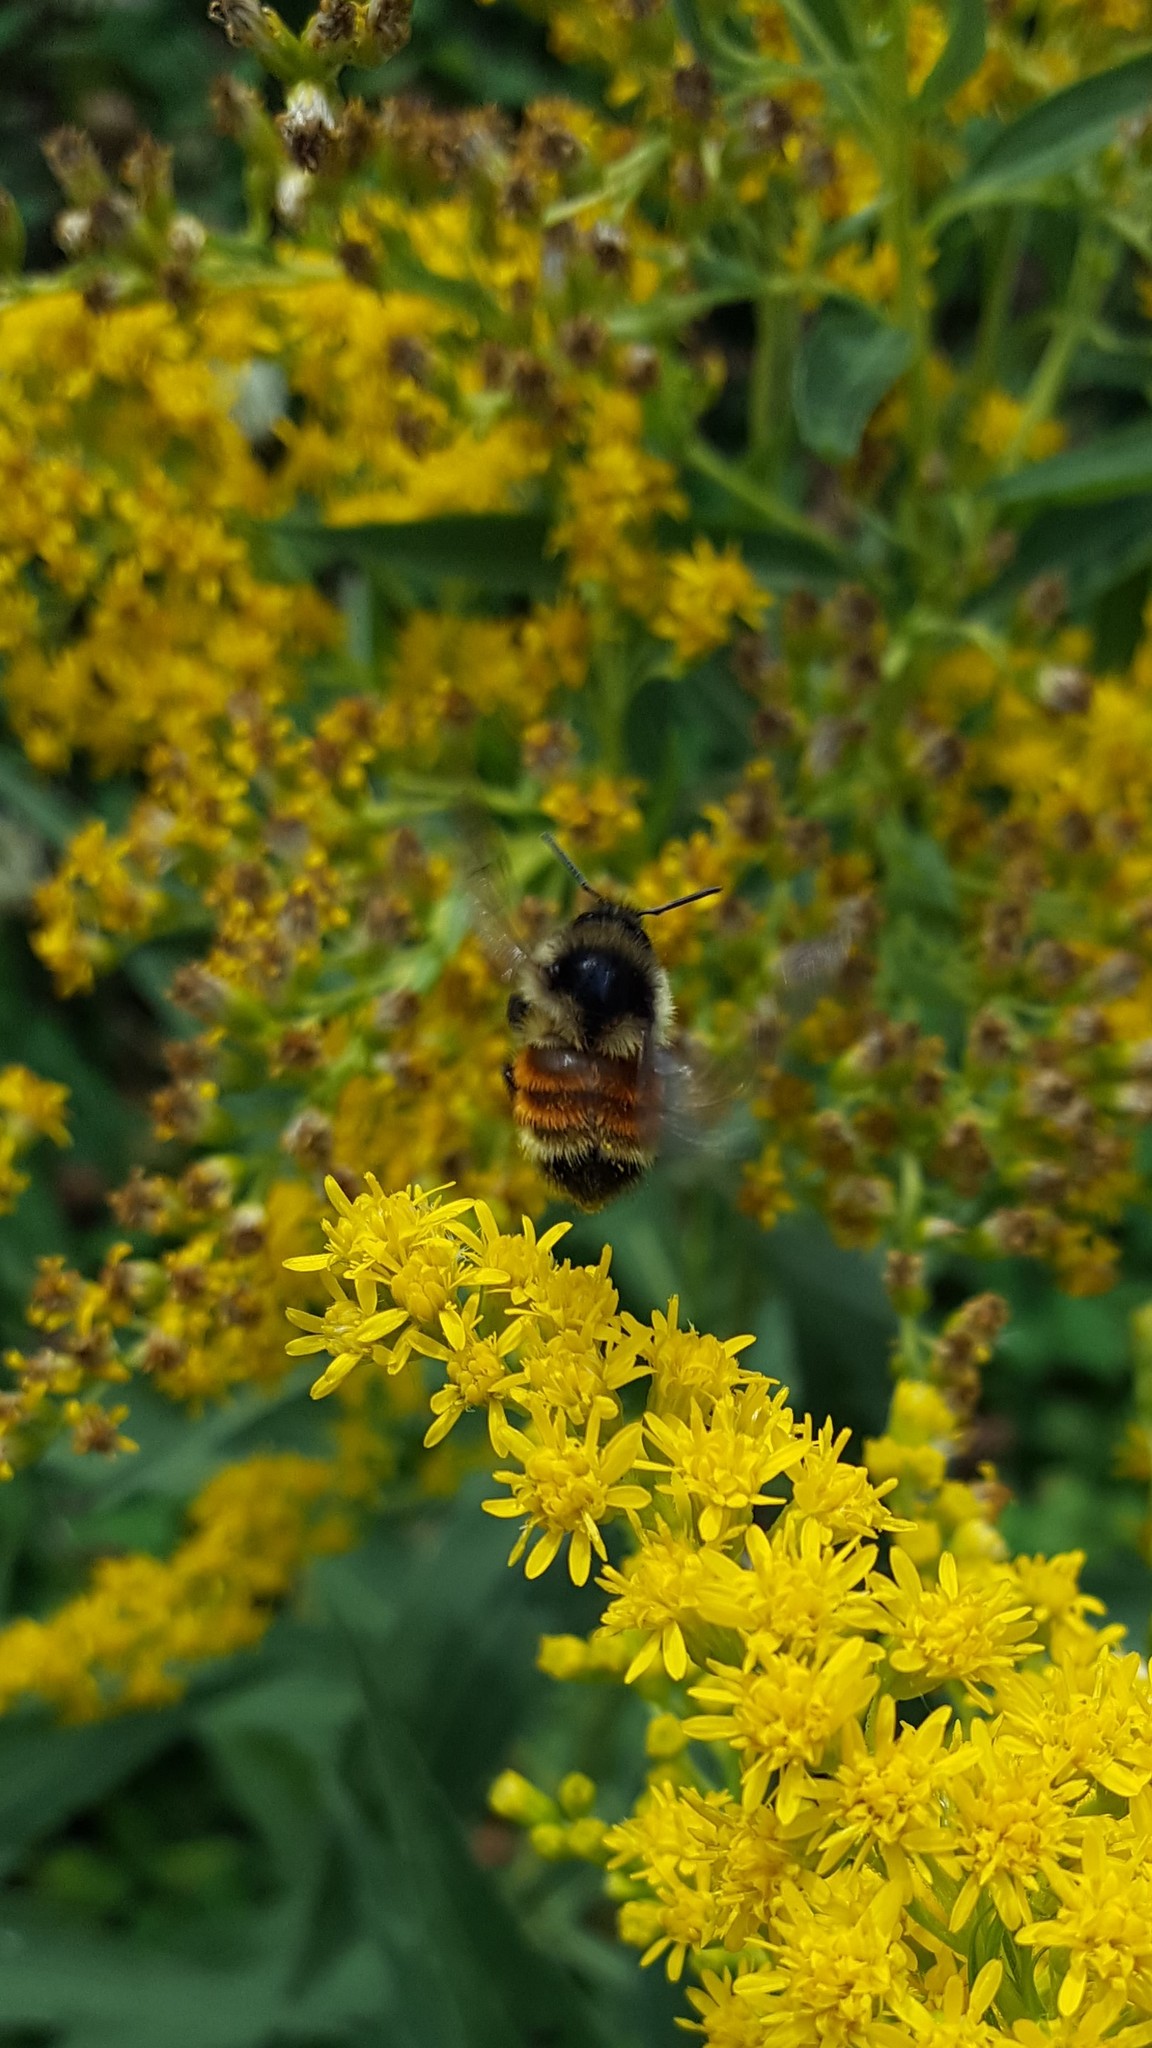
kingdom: Animalia
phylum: Arthropoda
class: Insecta
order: Hymenoptera
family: Apidae
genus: Bombus
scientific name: Bombus ternarius
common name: Tri-colored bumble bee
